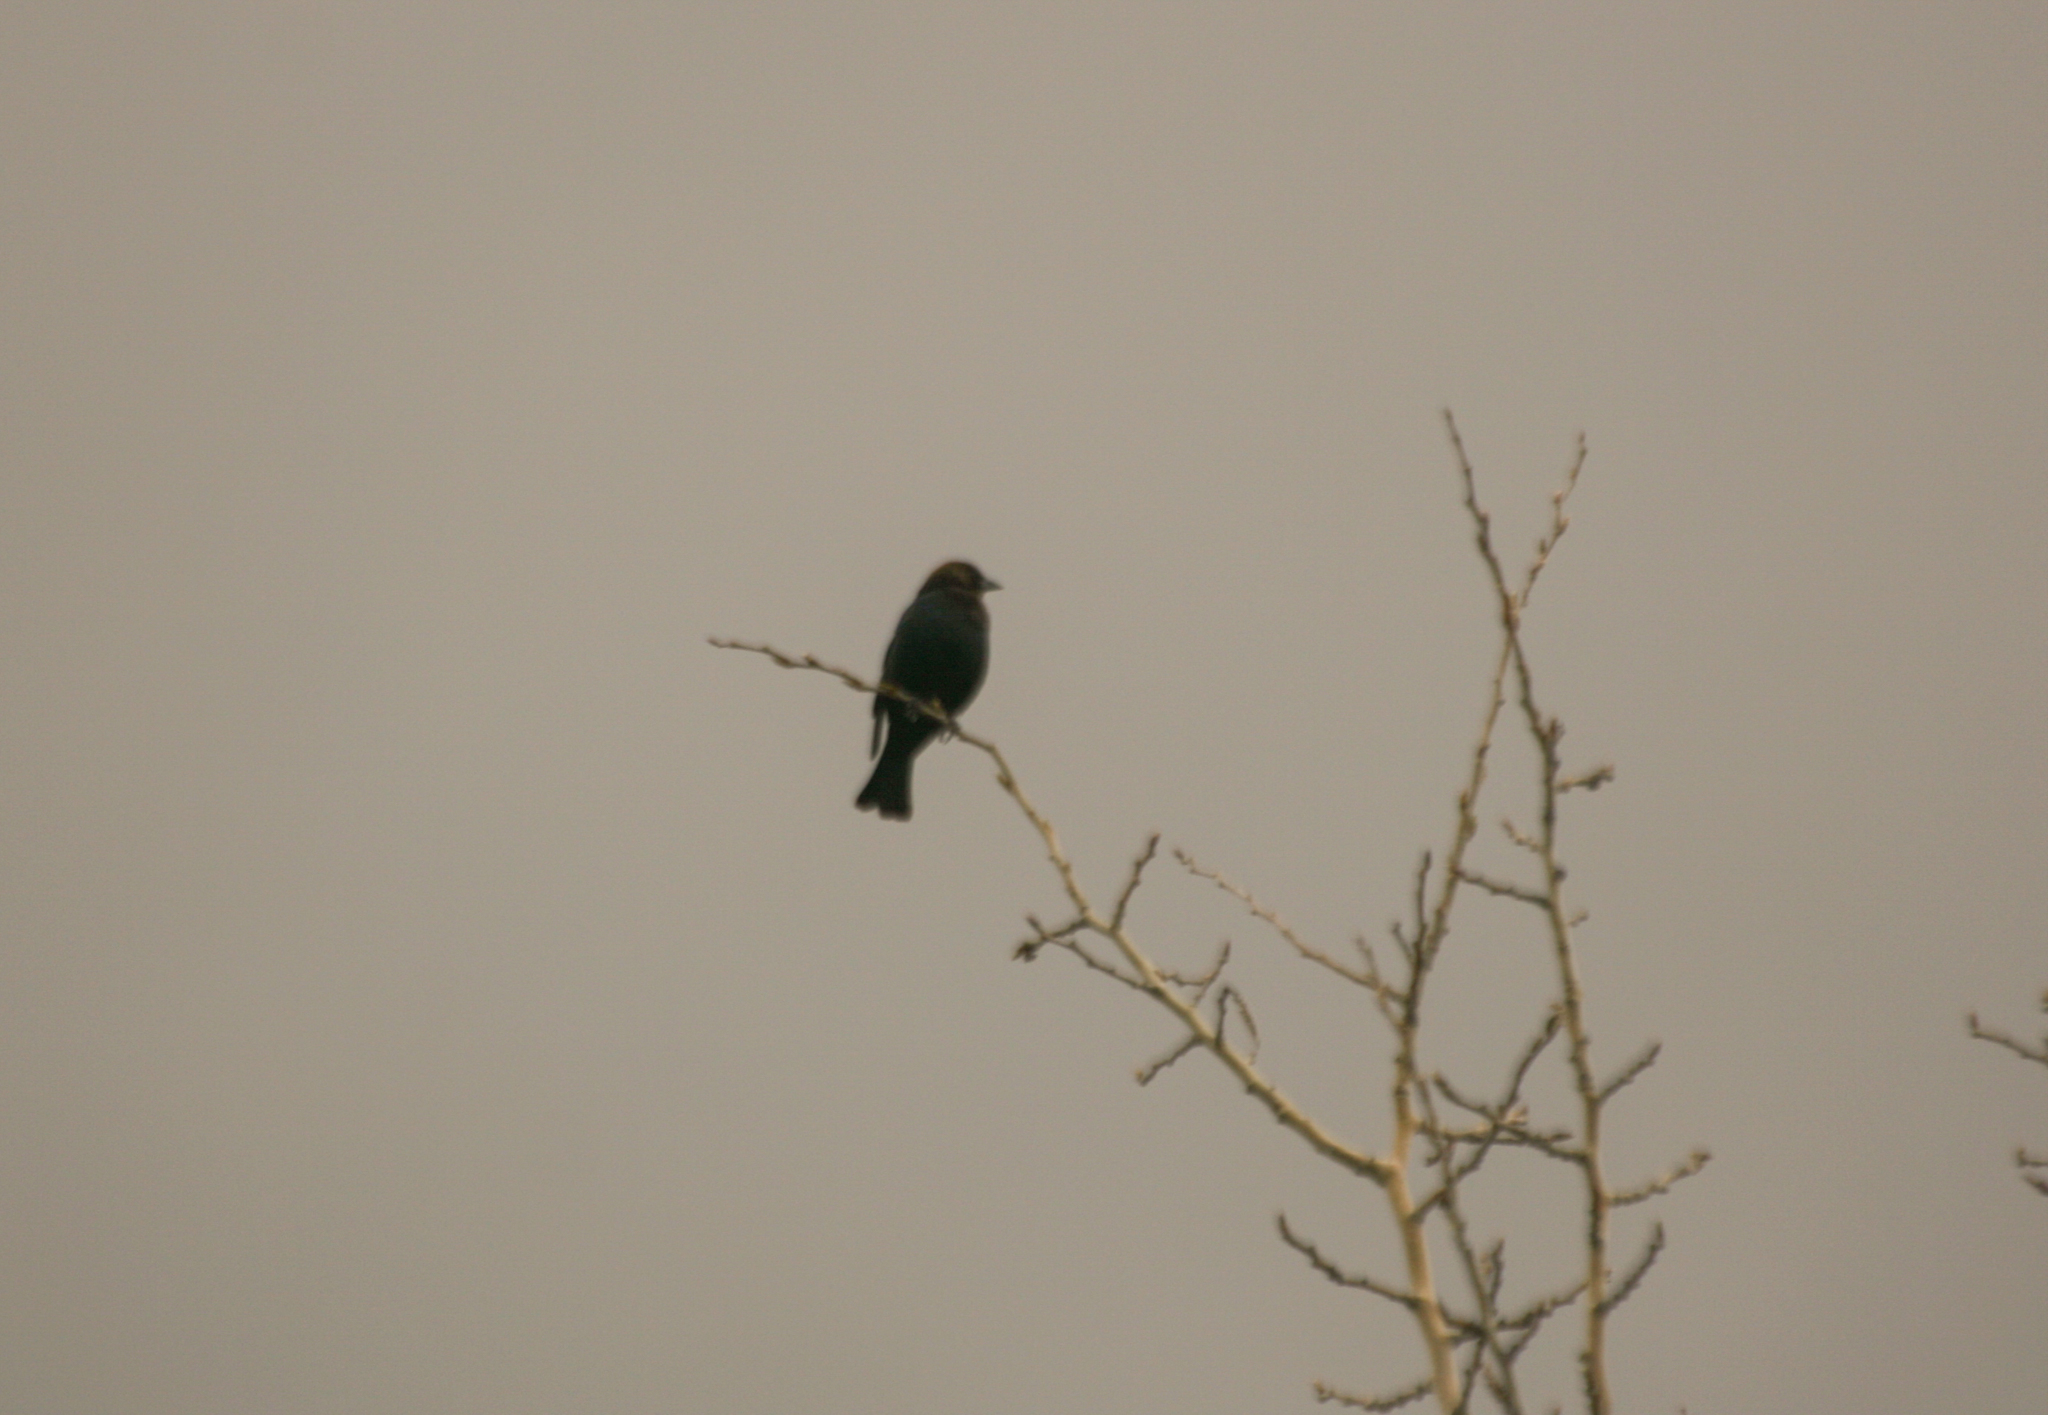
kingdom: Animalia
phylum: Chordata
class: Aves
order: Passeriformes
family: Icteridae
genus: Molothrus
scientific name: Molothrus ater
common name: Brown-headed cowbird
